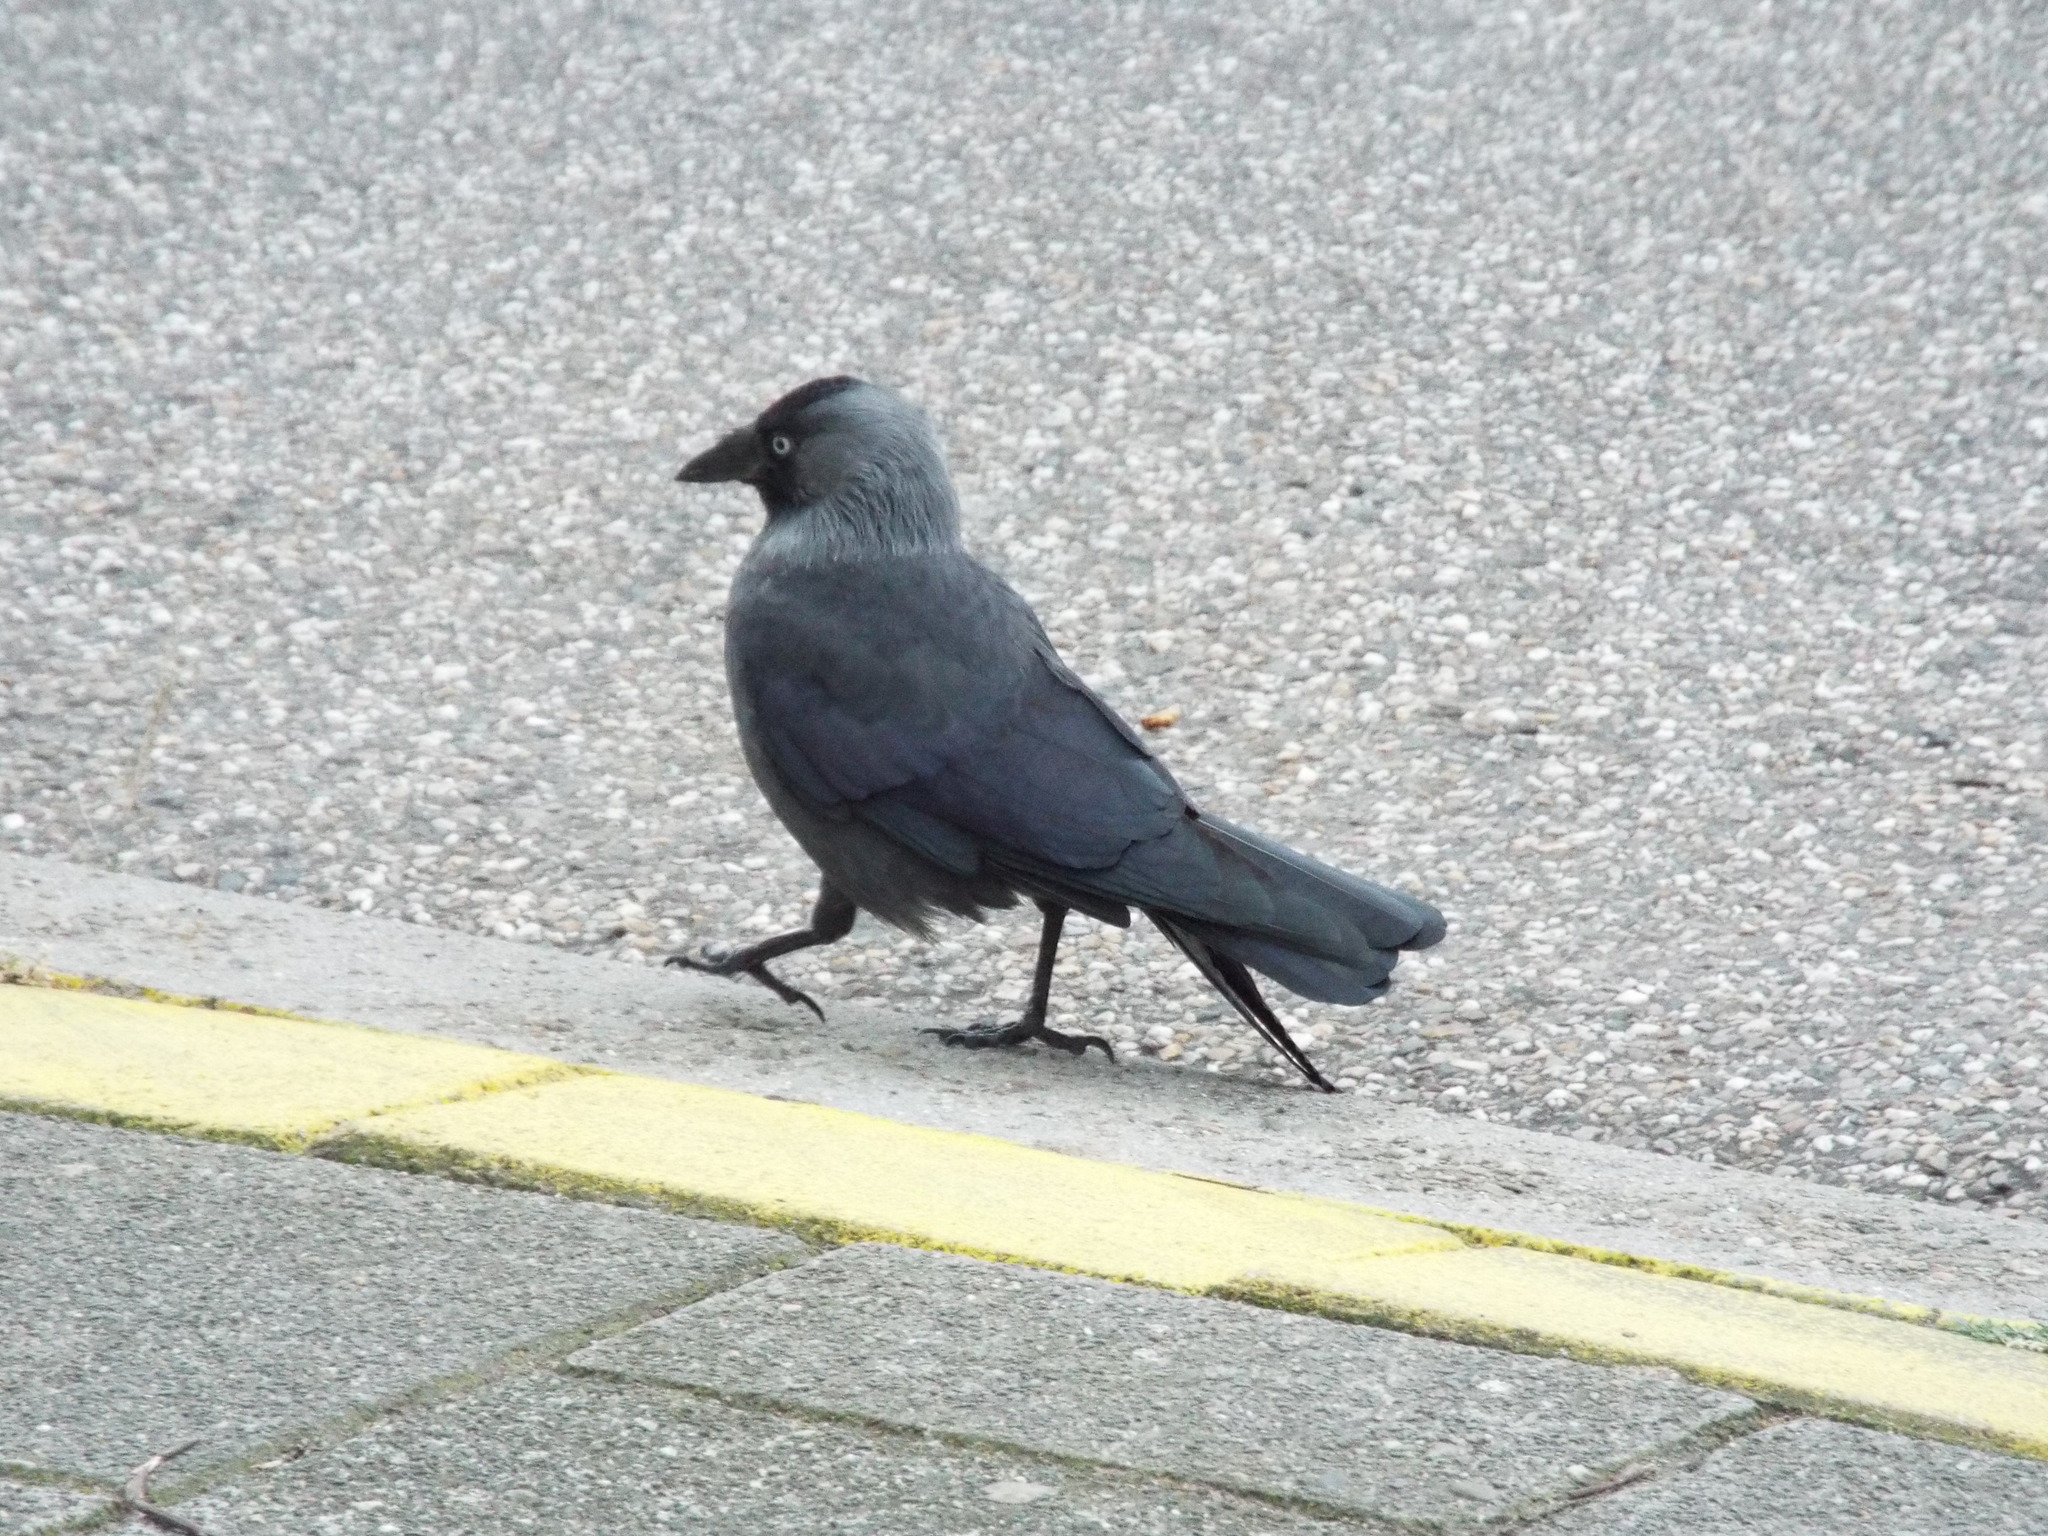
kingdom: Animalia
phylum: Chordata
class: Aves
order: Passeriformes
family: Corvidae
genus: Coloeus
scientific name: Coloeus monedula
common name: Western jackdaw
